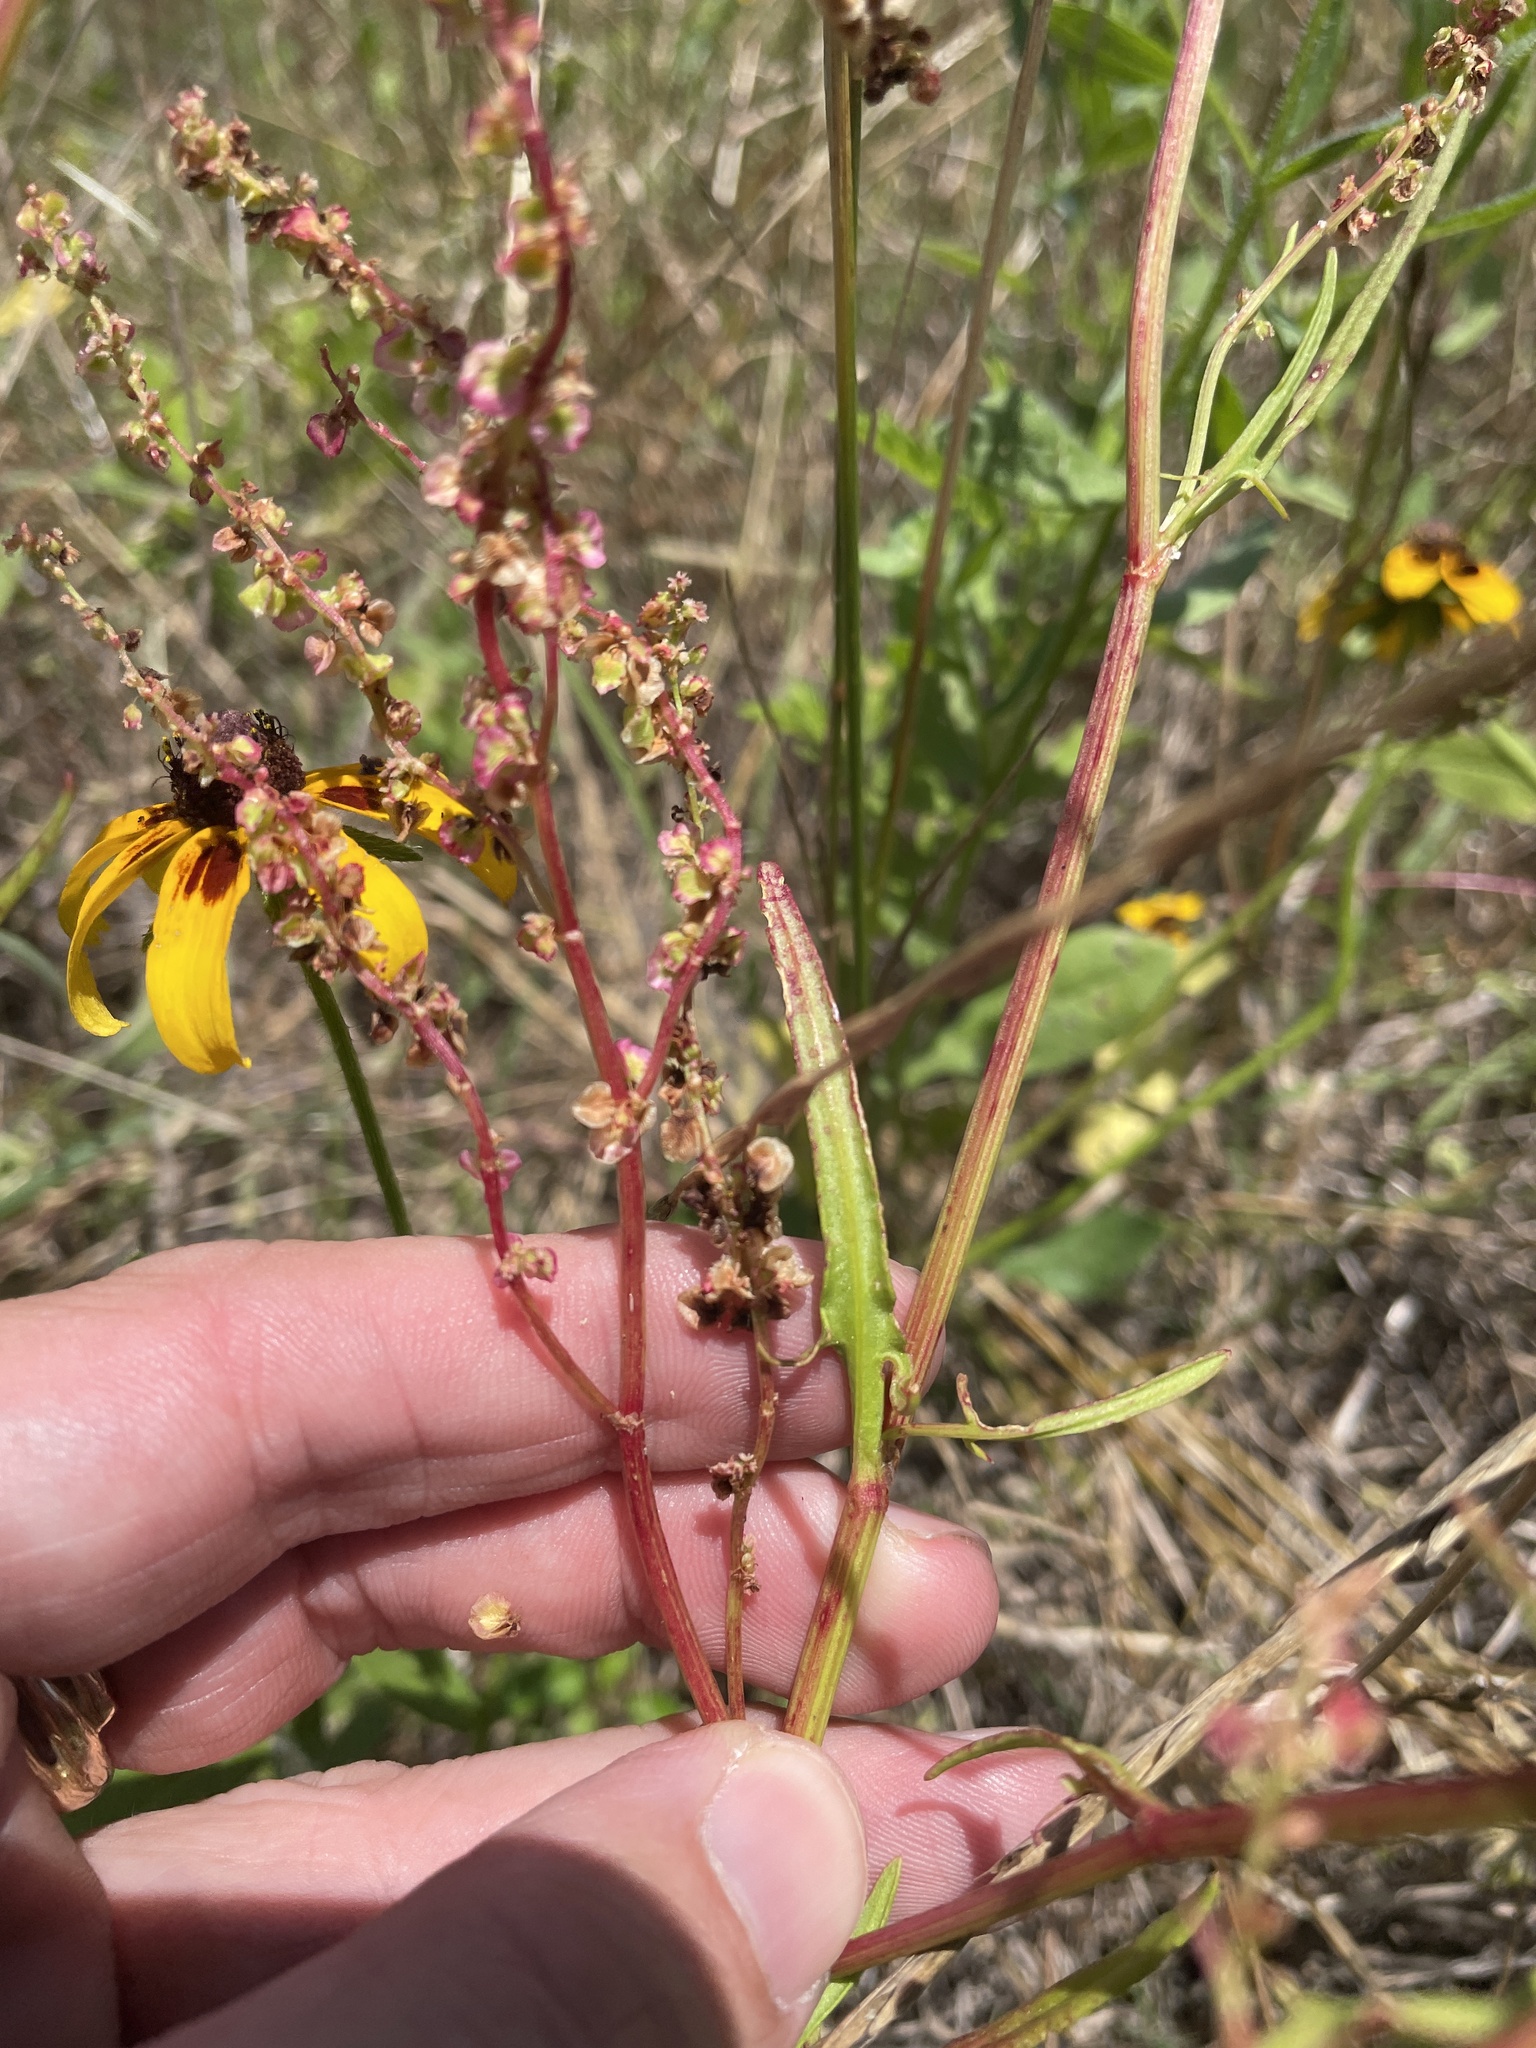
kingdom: Plantae
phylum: Tracheophyta
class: Magnoliopsida
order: Caryophyllales
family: Polygonaceae
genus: Rumex
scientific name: Rumex hastatulus
